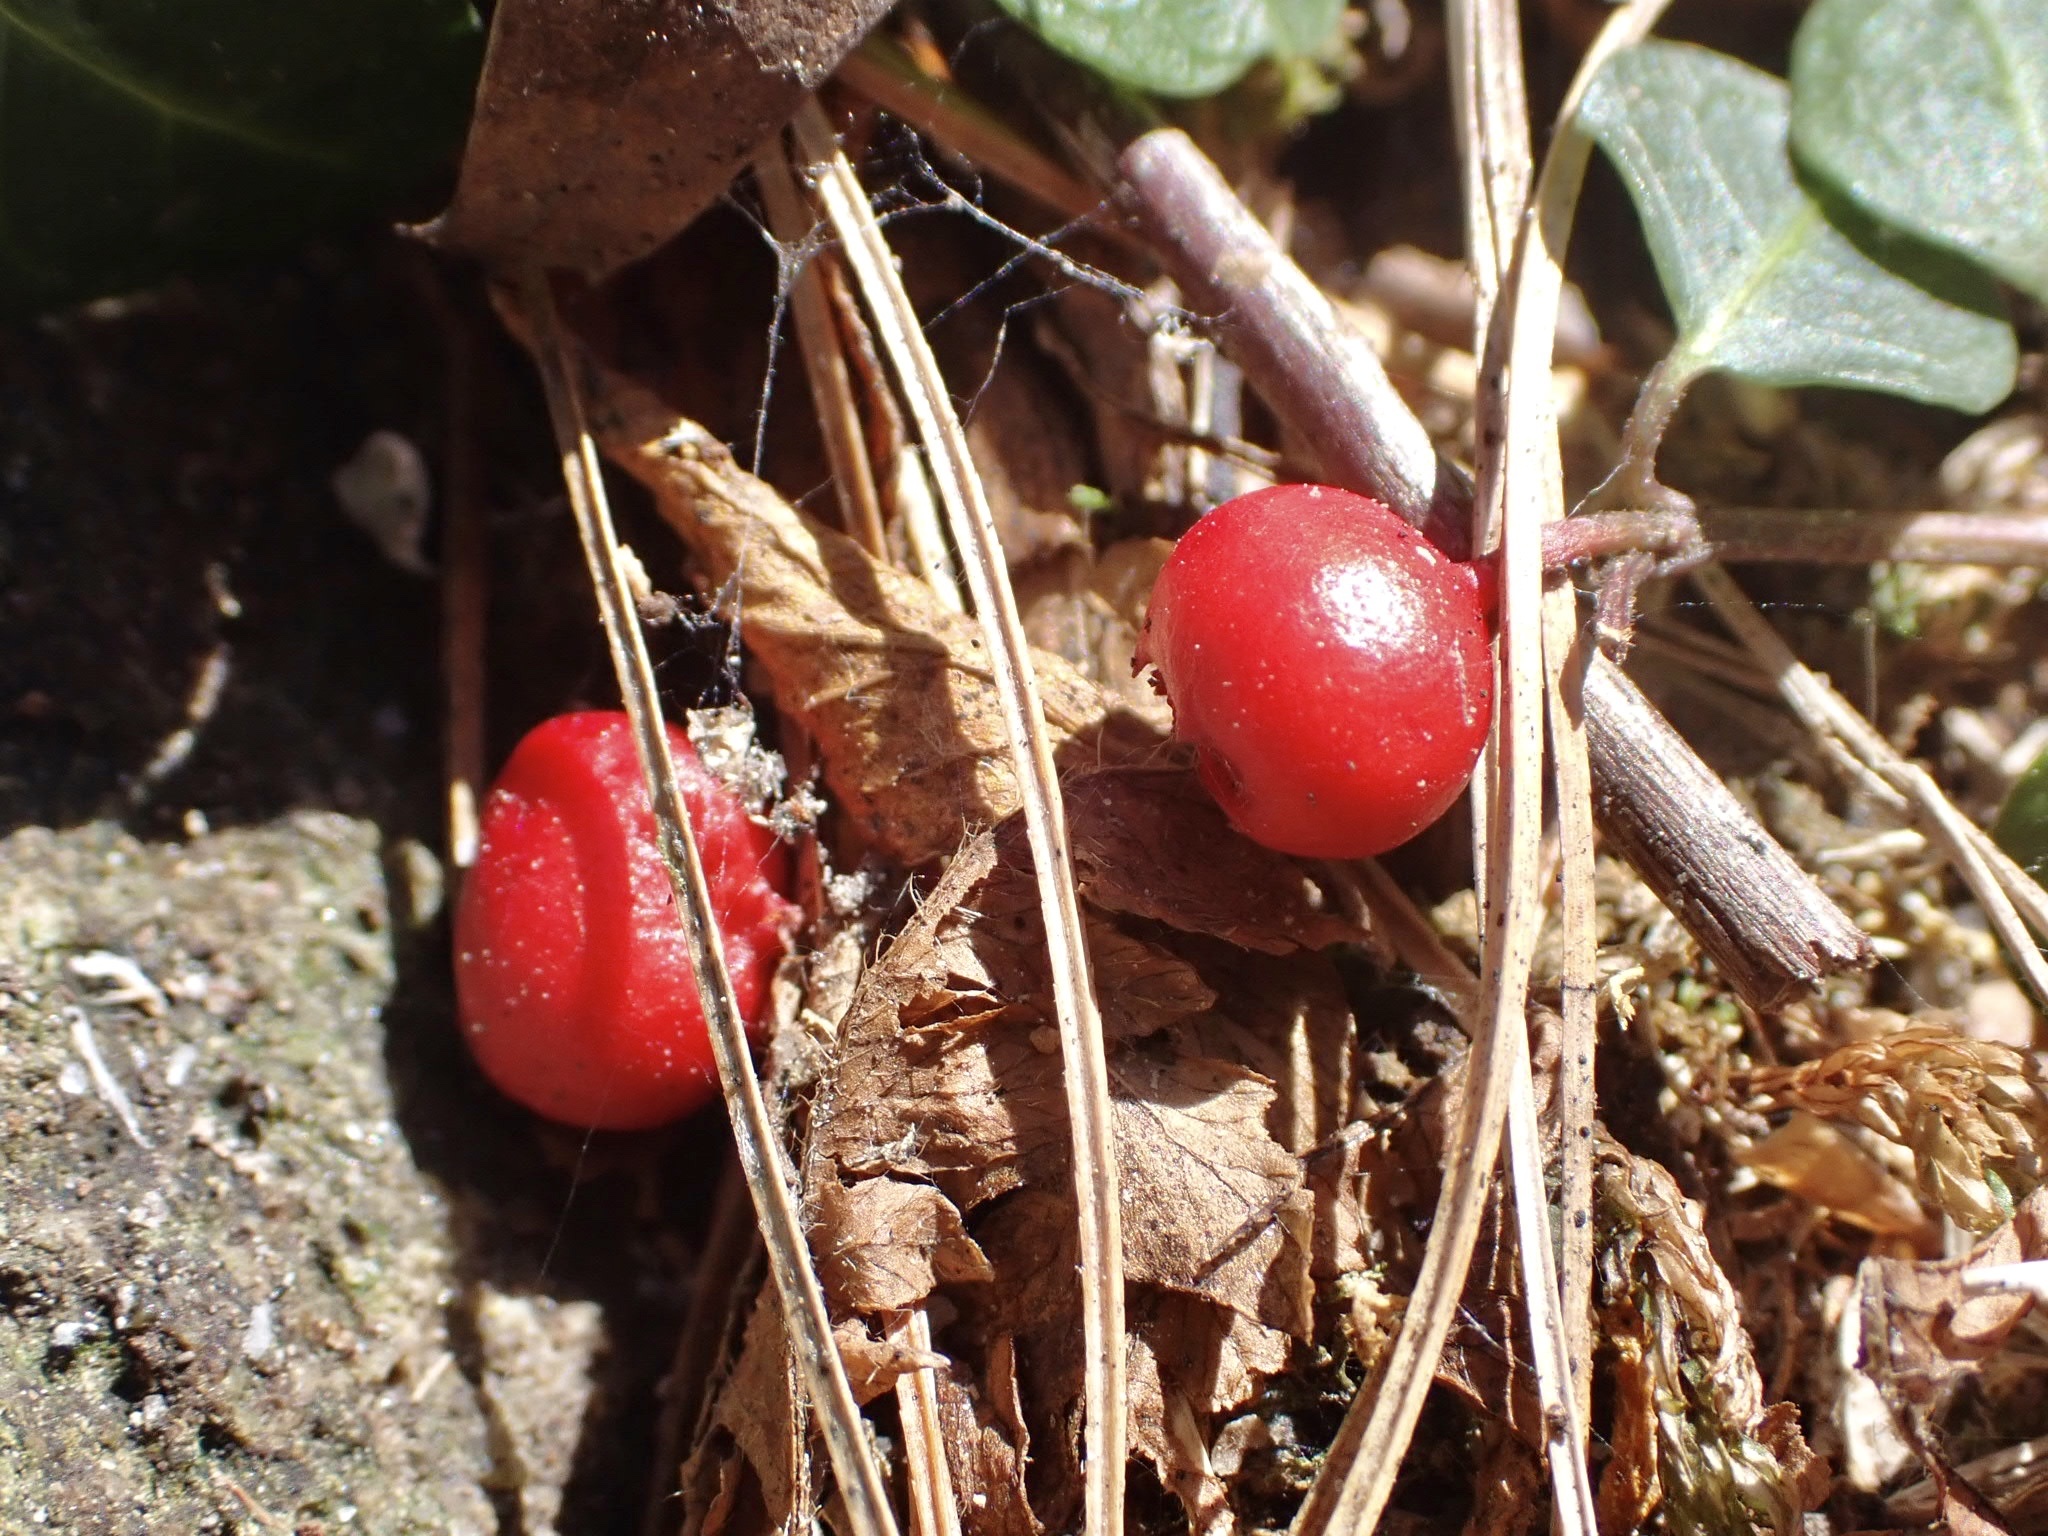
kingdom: Plantae
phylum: Tracheophyta
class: Magnoliopsida
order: Gentianales
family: Rubiaceae
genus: Mitchella
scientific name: Mitchella repens
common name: Partridge-berry
